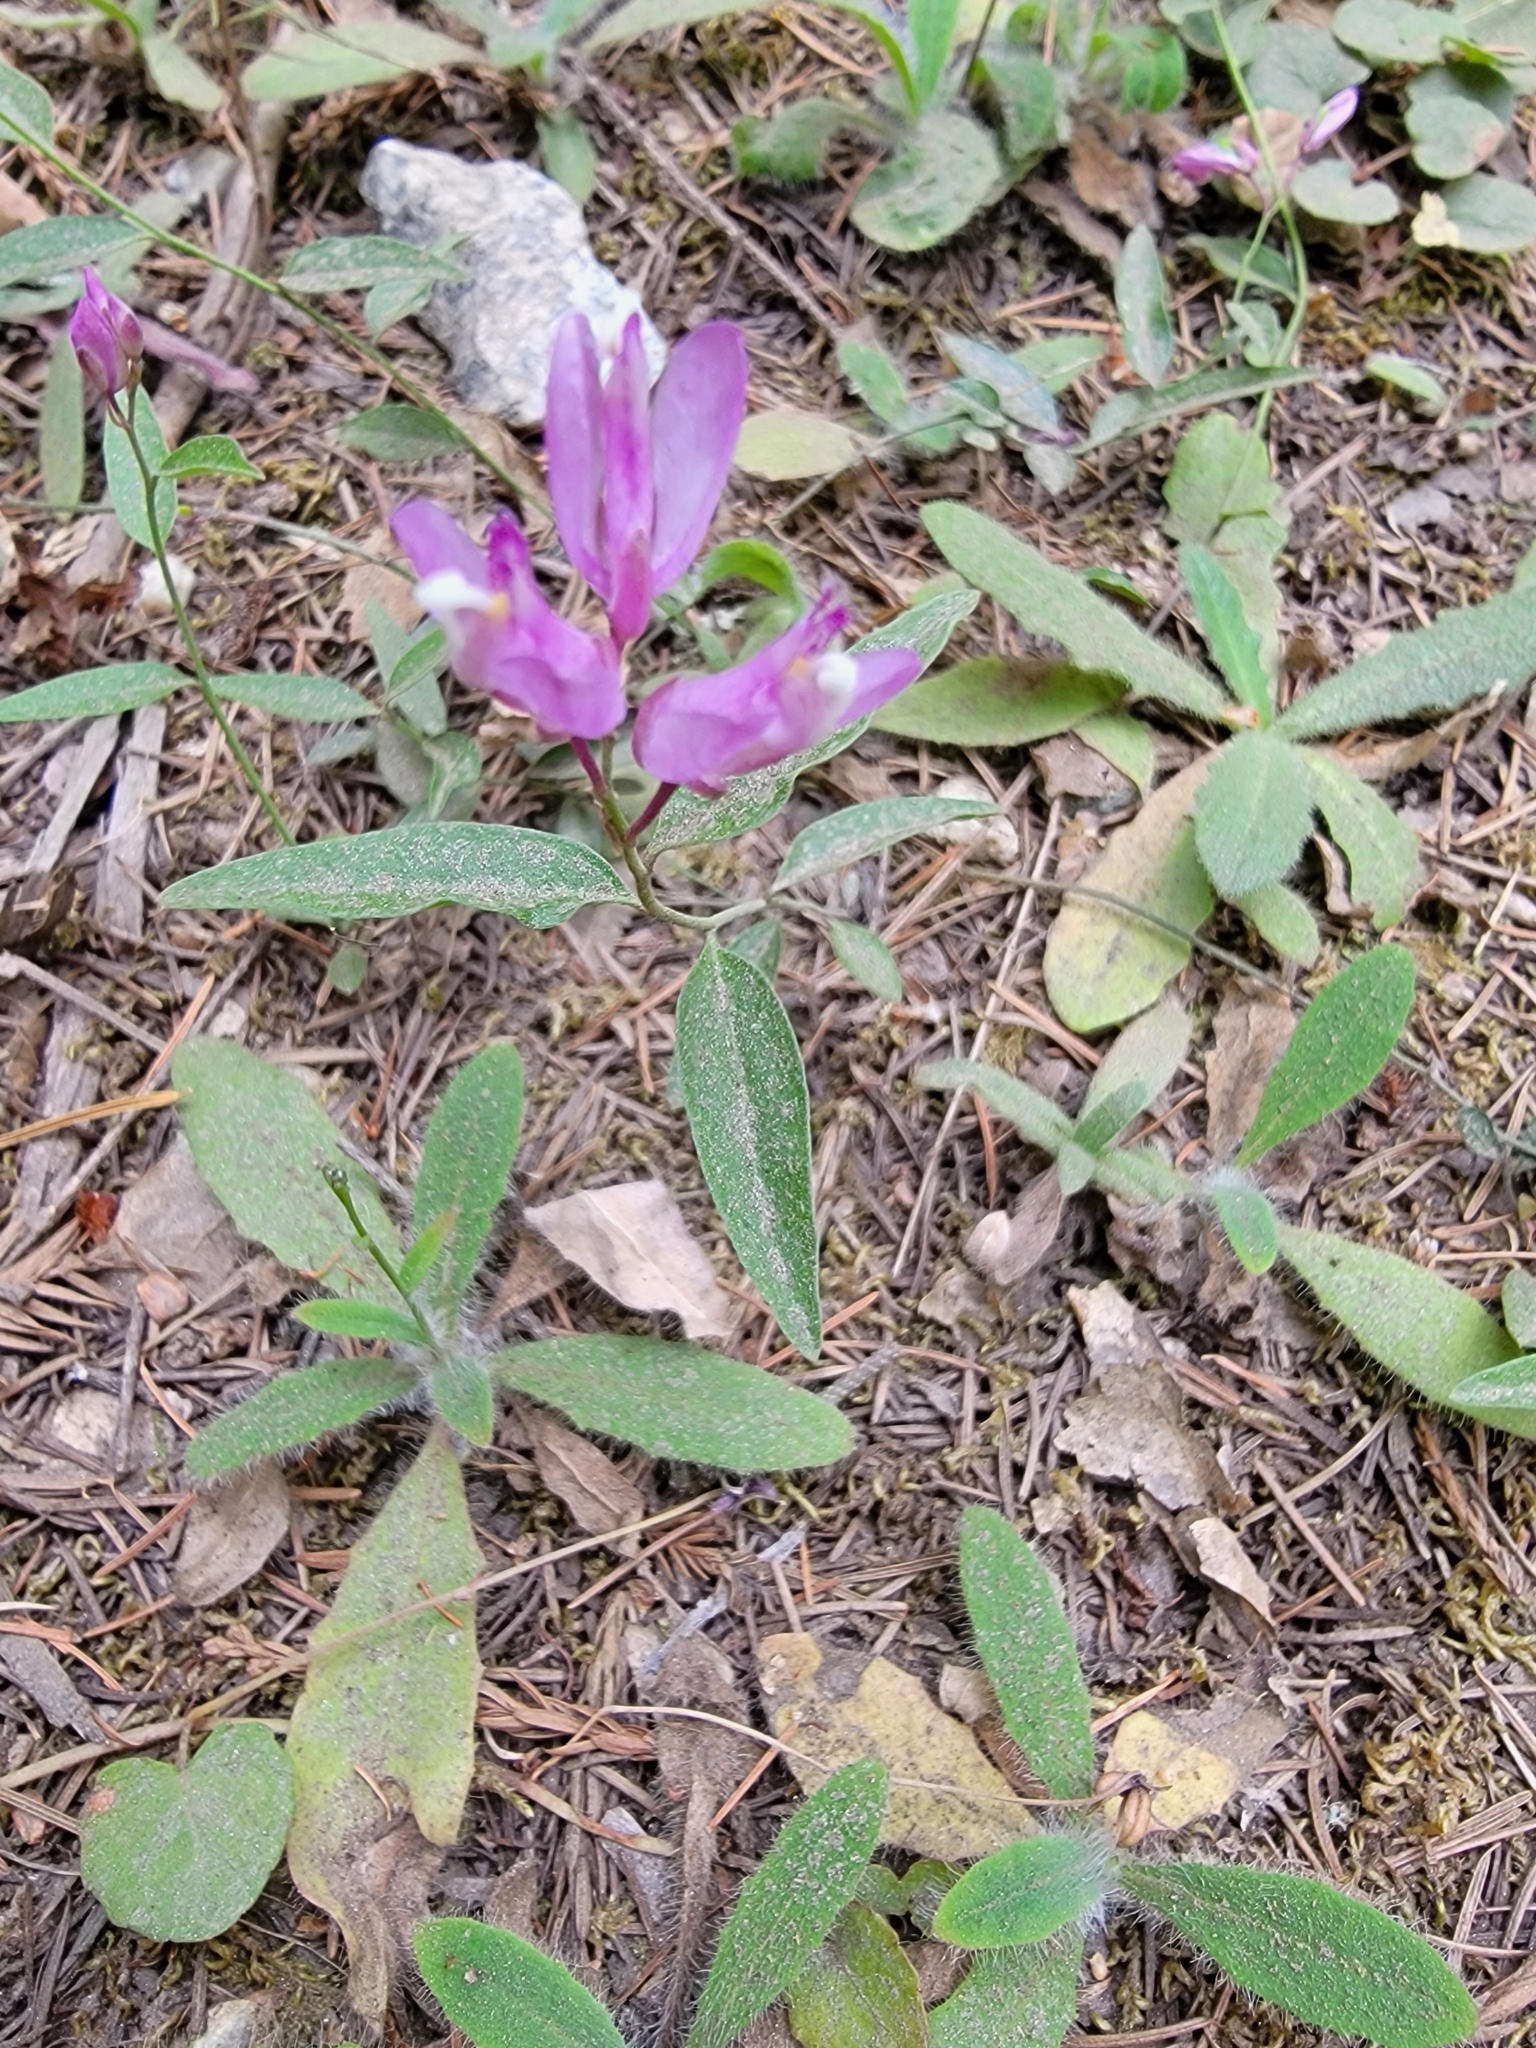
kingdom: Plantae
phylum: Tracheophyta
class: Magnoliopsida
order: Fabales
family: Polygalaceae
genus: Rhinotropis
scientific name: Rhinotropis californica
